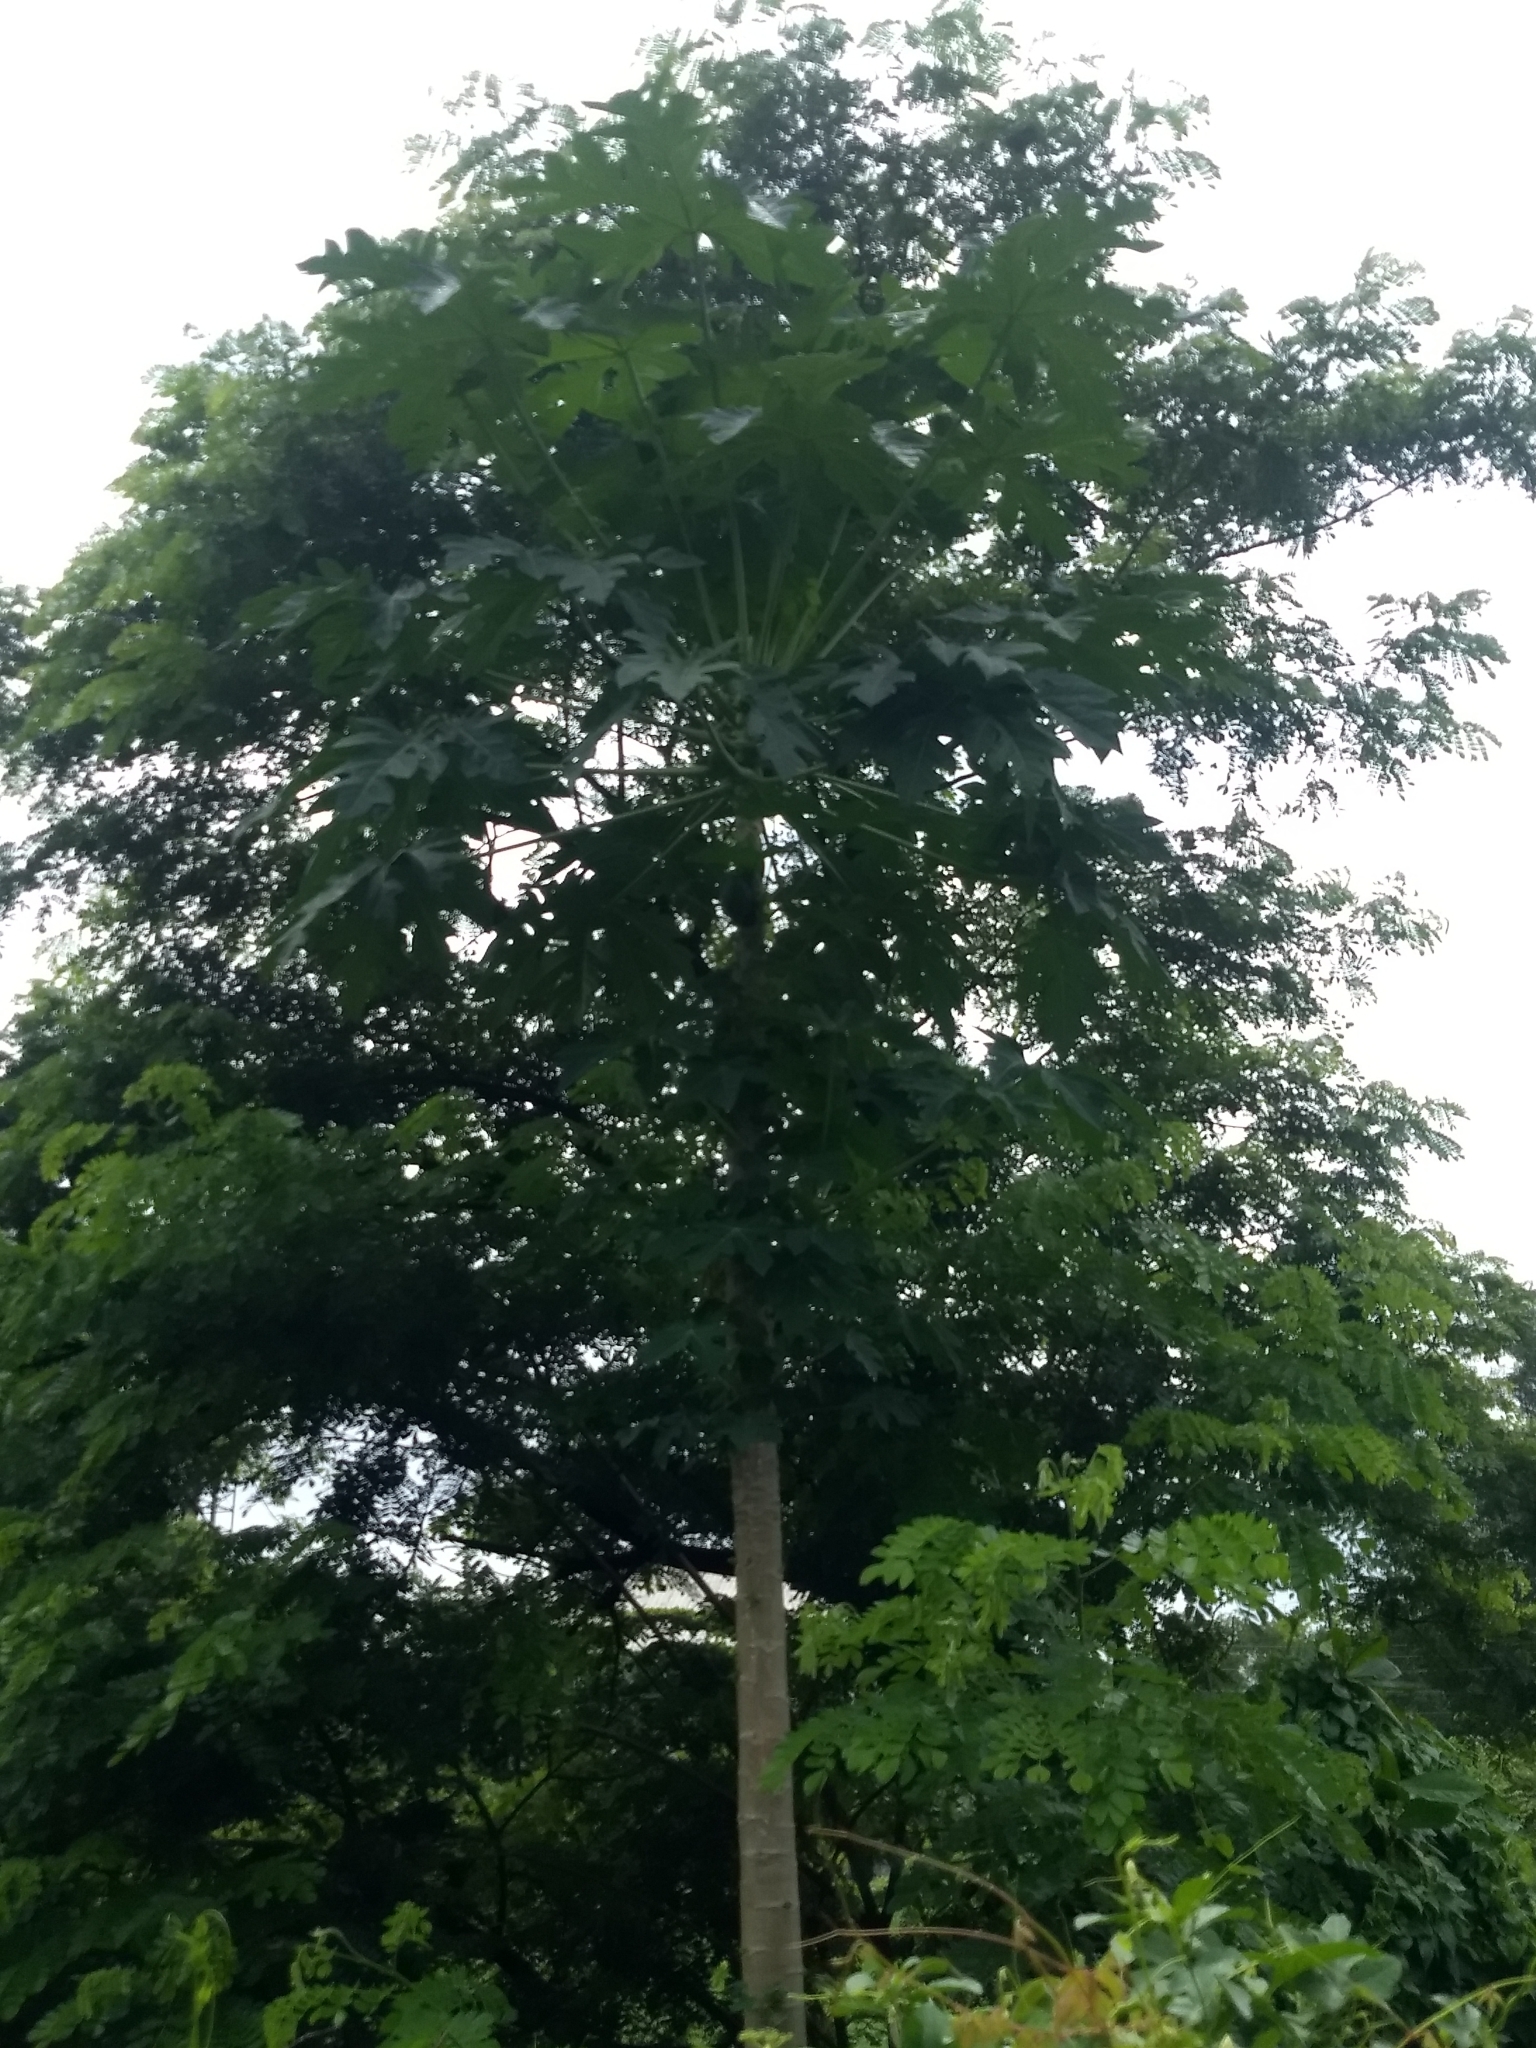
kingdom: Plantae
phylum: Tracheophyta
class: Magnoliopsida
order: Brassicales
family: Caricaceae
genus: Carica
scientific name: Carica papaya
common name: Papaya
